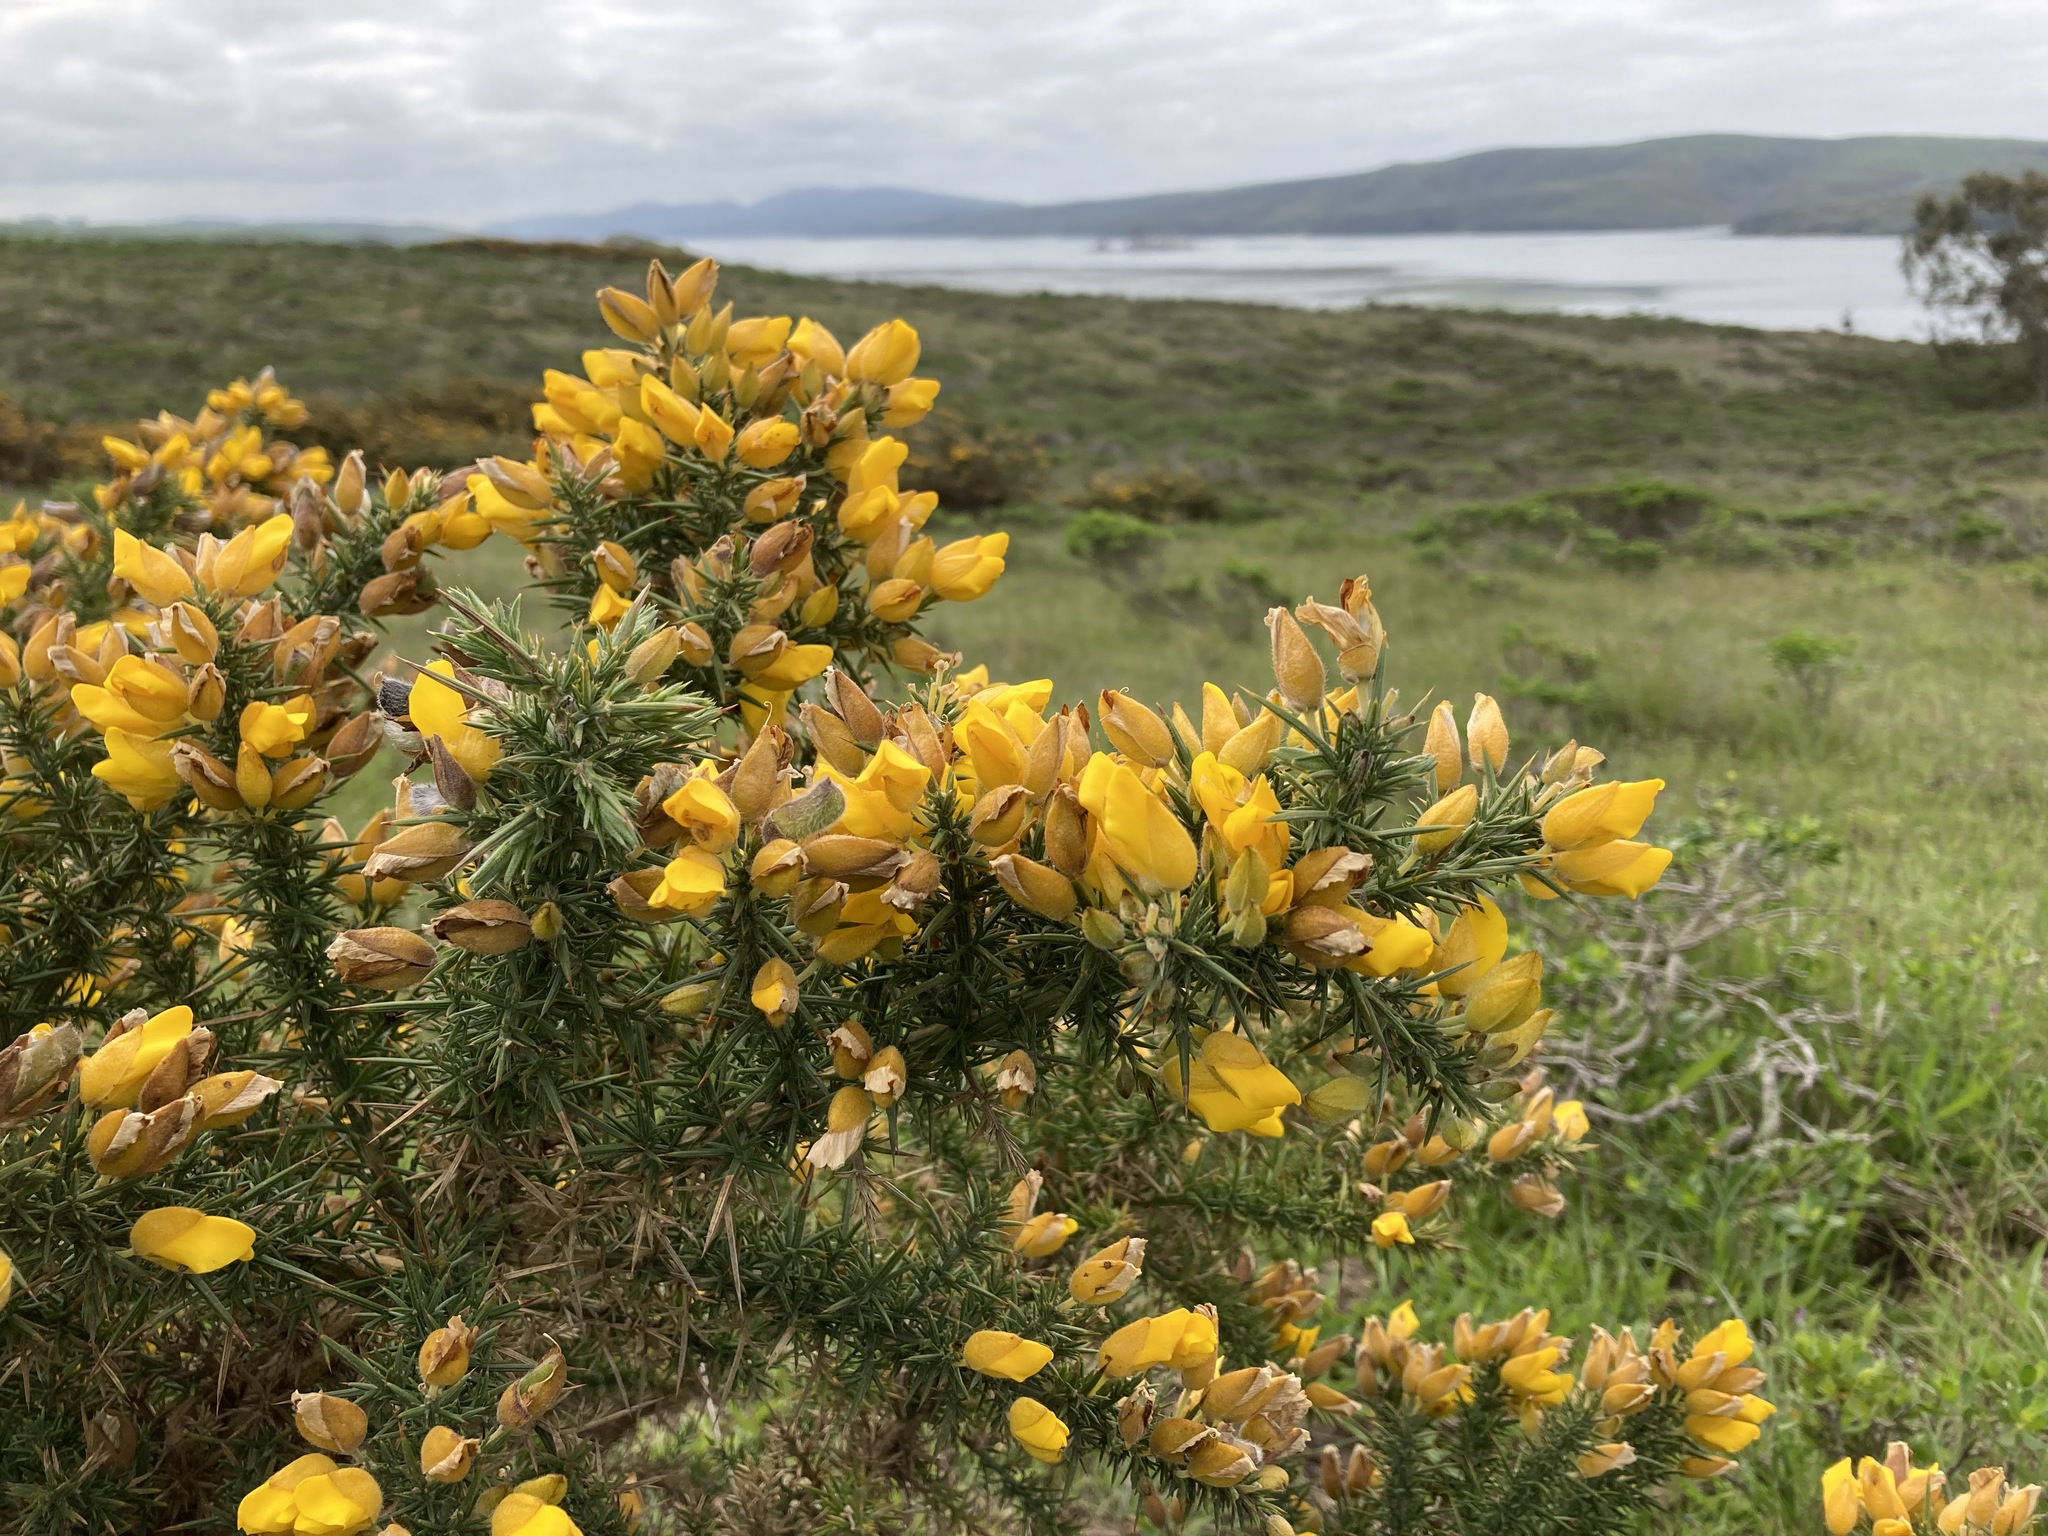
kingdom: Plantae
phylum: Tracheophyta
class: Magnoliopsida
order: Fabales
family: Fabaceae
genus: Ulex
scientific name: Ulex europaeus
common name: Common gorse
